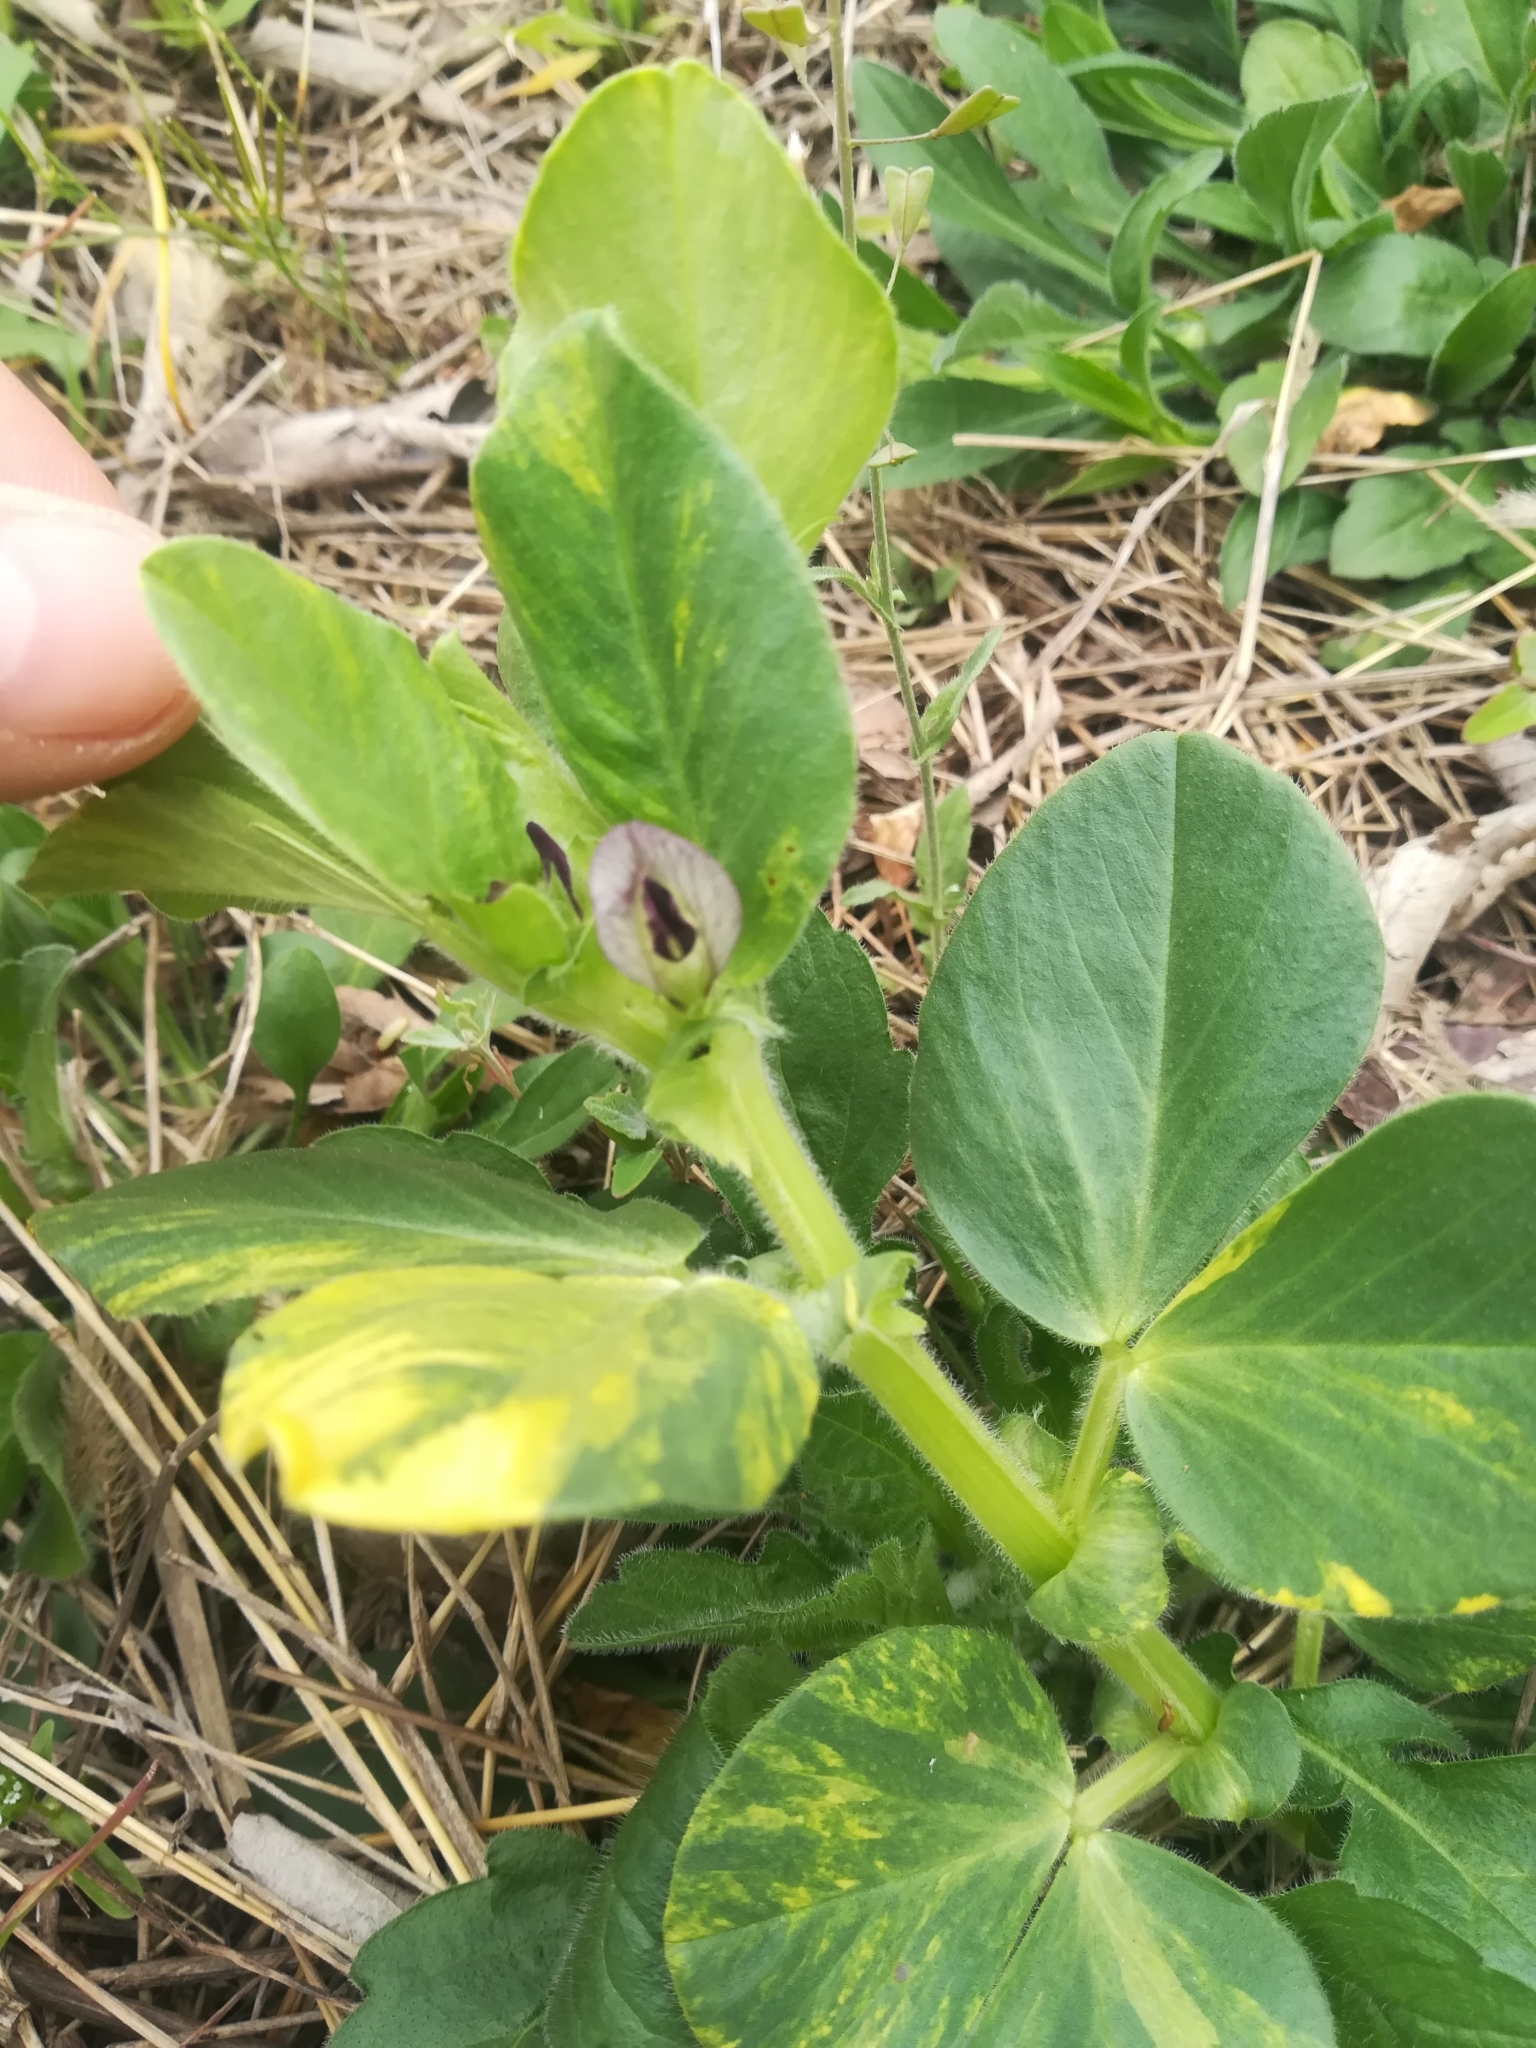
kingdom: Plantae
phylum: Tracheophyta
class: Magnoliopsida
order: Fabales
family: Fabaceae
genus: Vicia
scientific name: Vicia faba
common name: Broad bean
